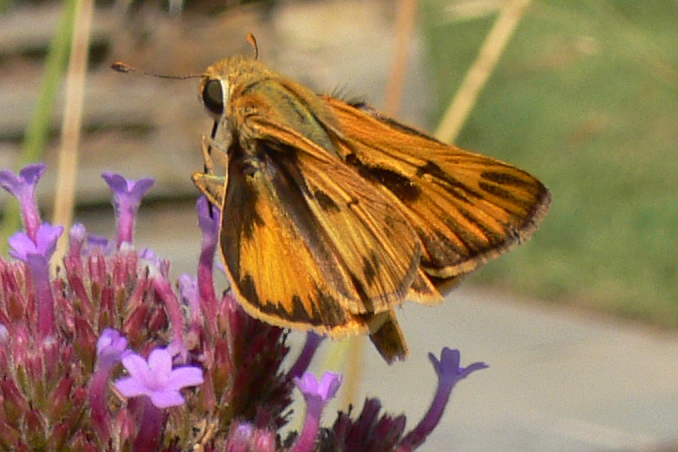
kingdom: Animalia
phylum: Arthropoda
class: Insecta
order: Lepidoptera
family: Hesperiidae
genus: Hylephila
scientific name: Hylephila phyleus
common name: Fiery skipper
